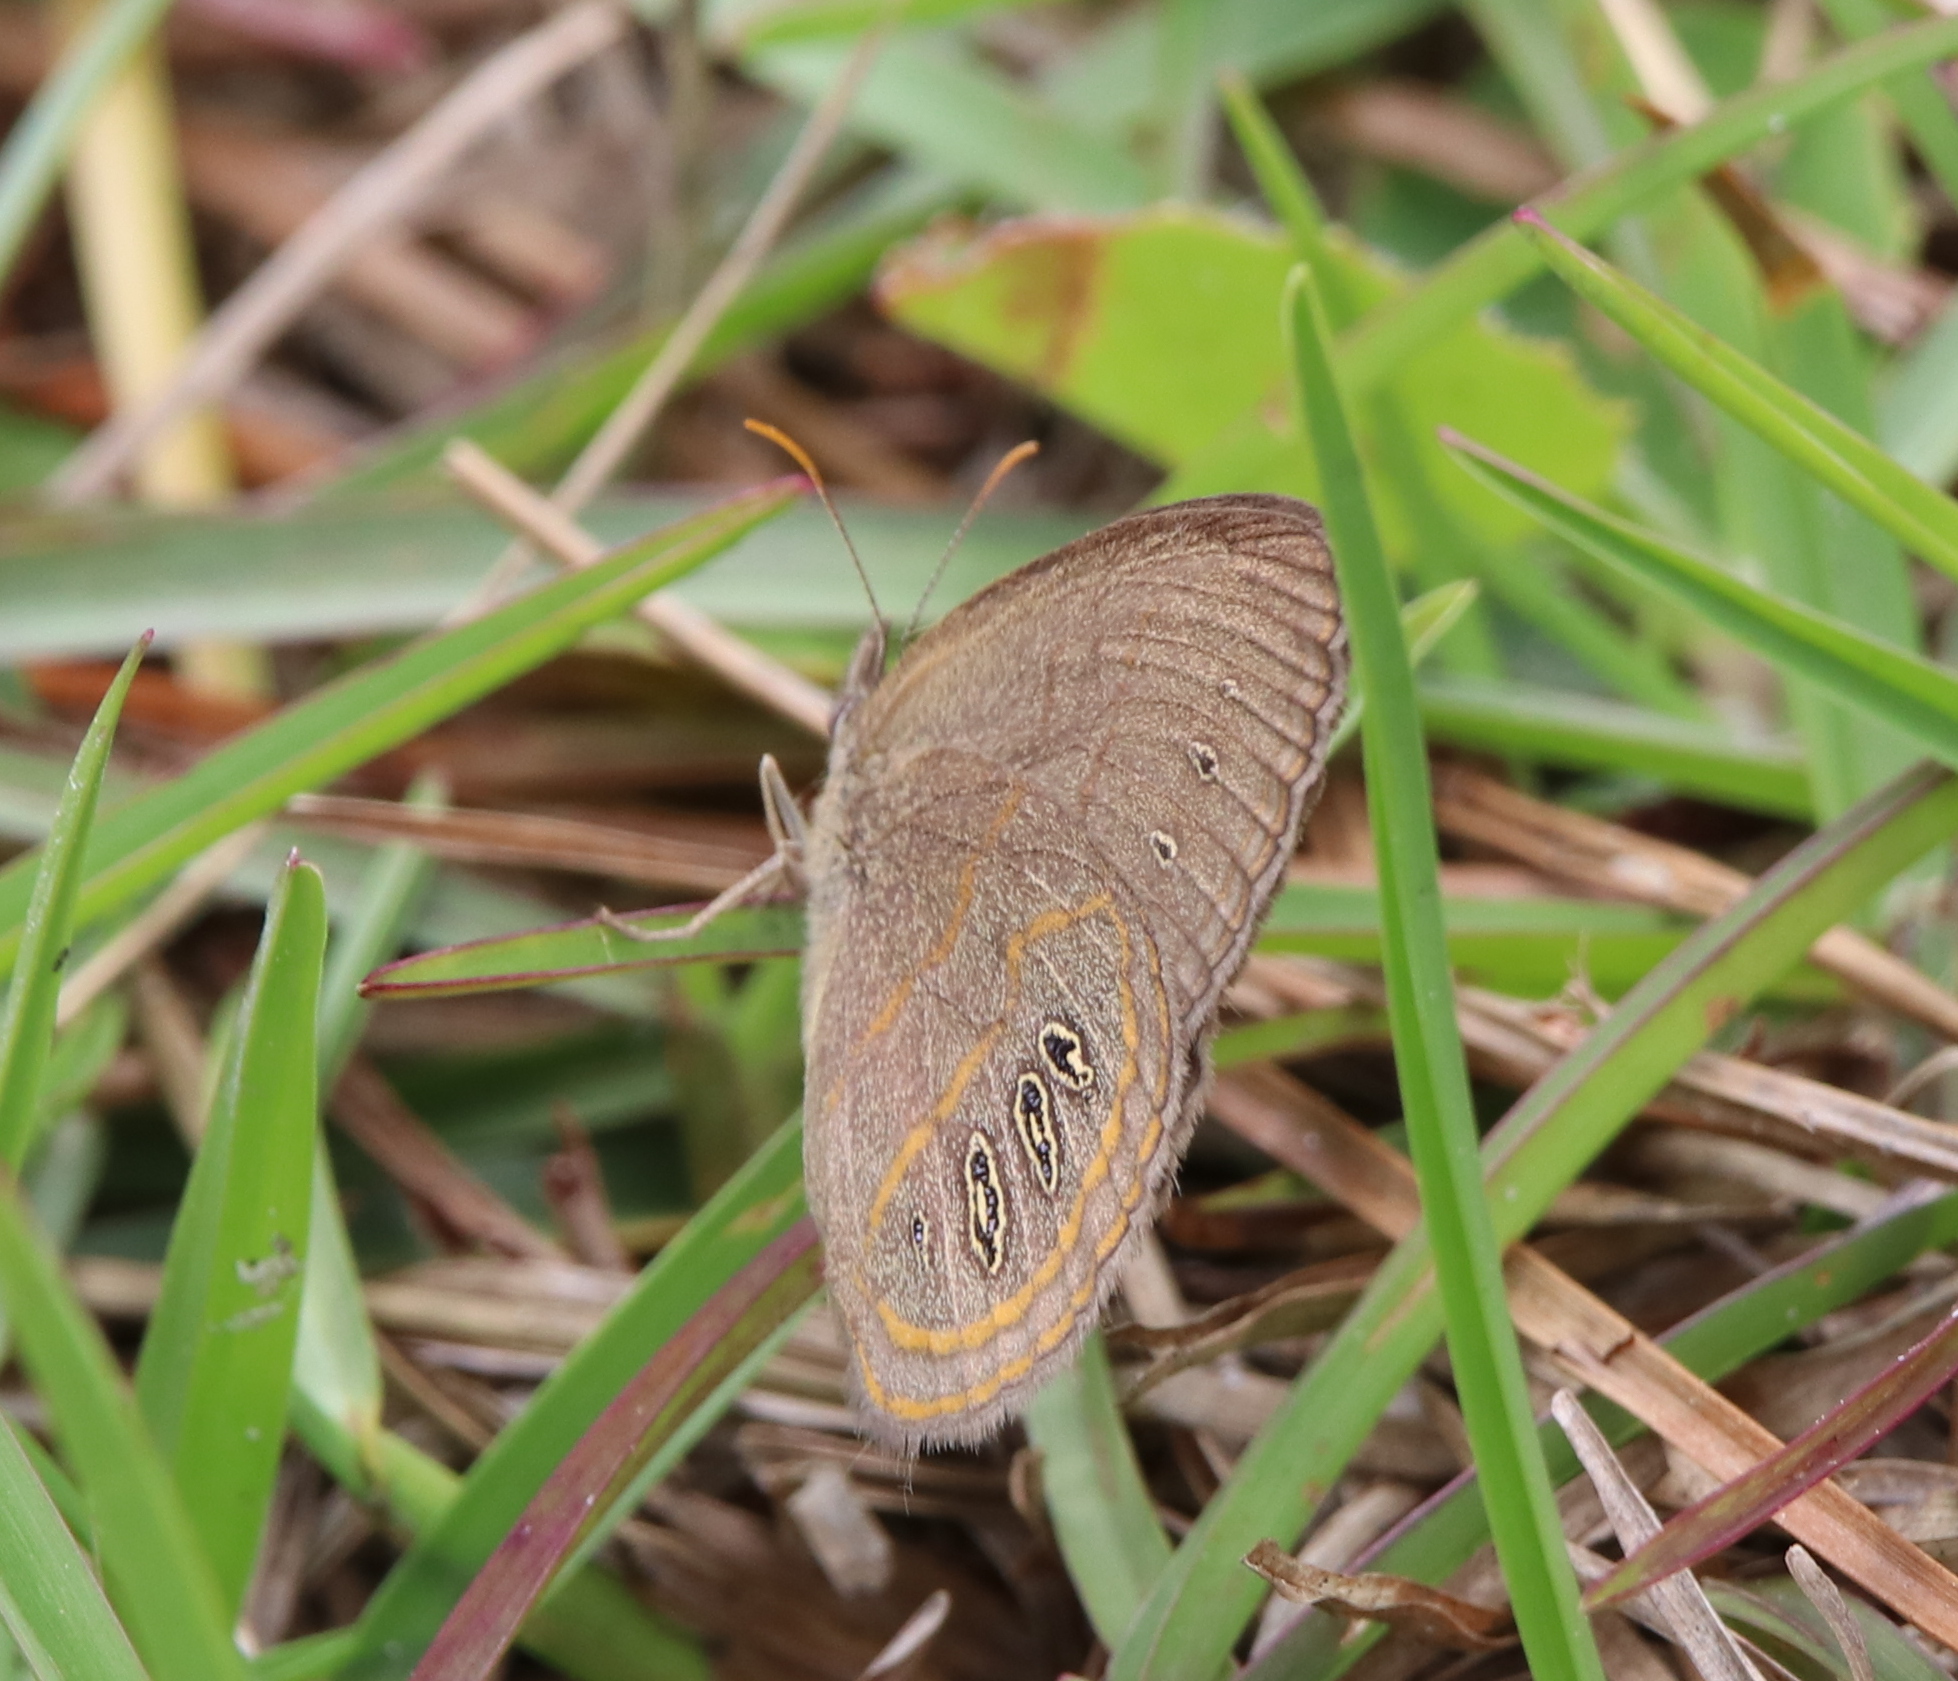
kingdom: Animalia
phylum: Arthropoda
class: Insecta
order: Lepidoptera
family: Nymphalidae
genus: Euptychia
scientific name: Euptychia phocion
